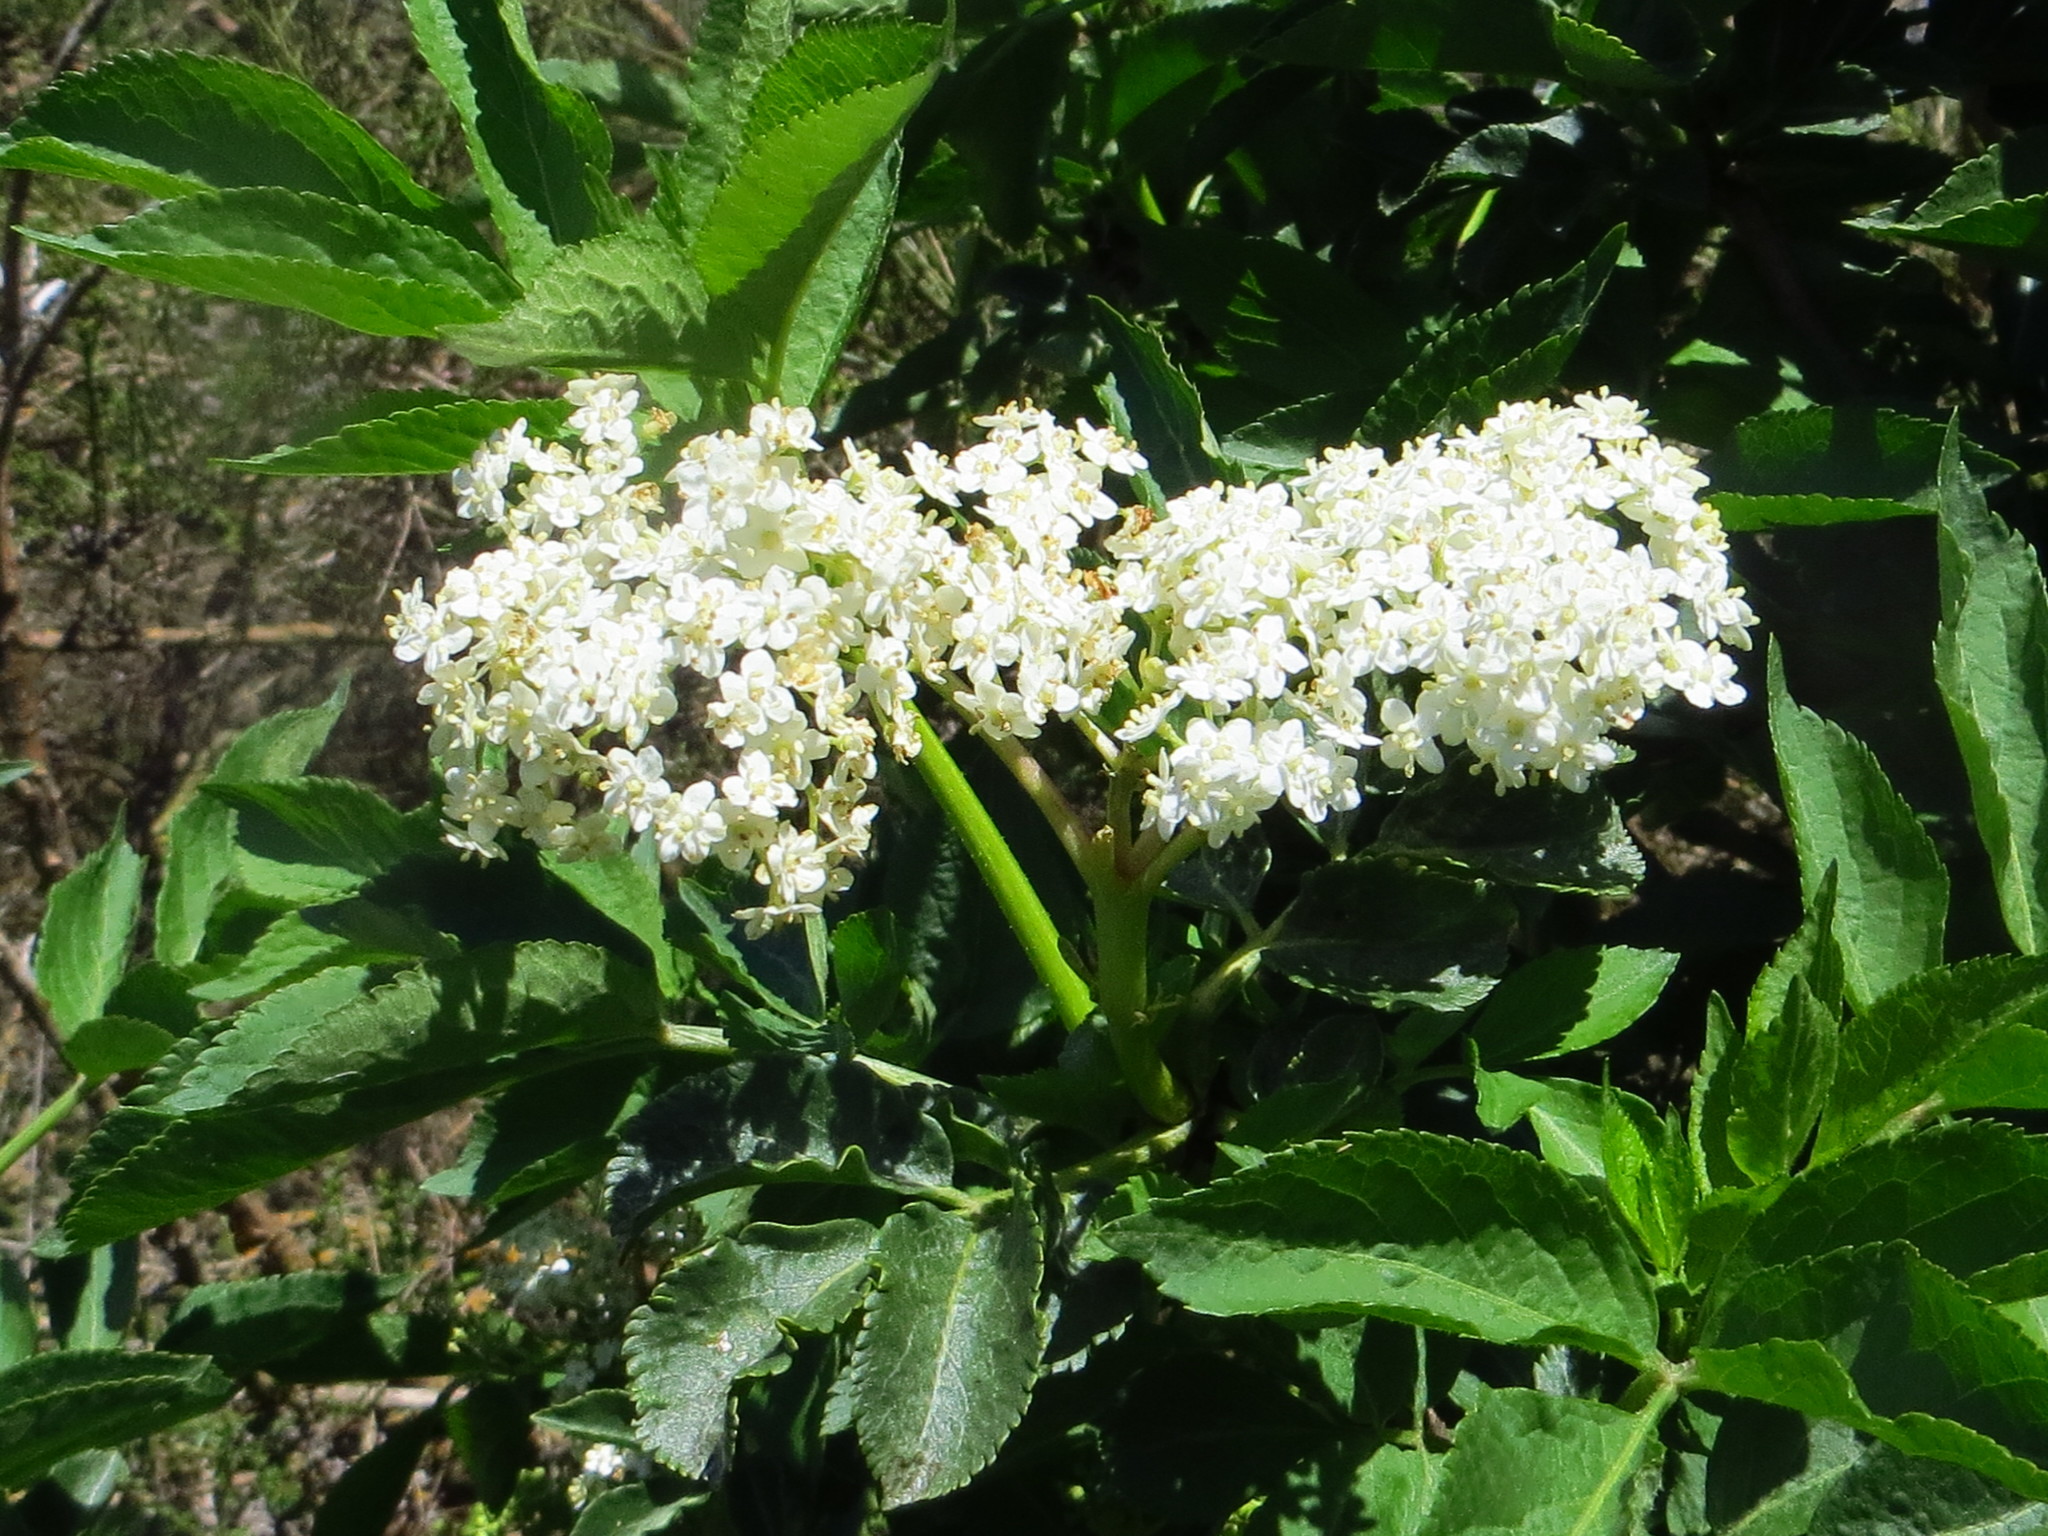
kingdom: Plantae
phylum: Tracheophyta
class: Magnoliopsida
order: Dipsacales
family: Viburnaceae
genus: Sambucus
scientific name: Sambucus nigra
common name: Elder
